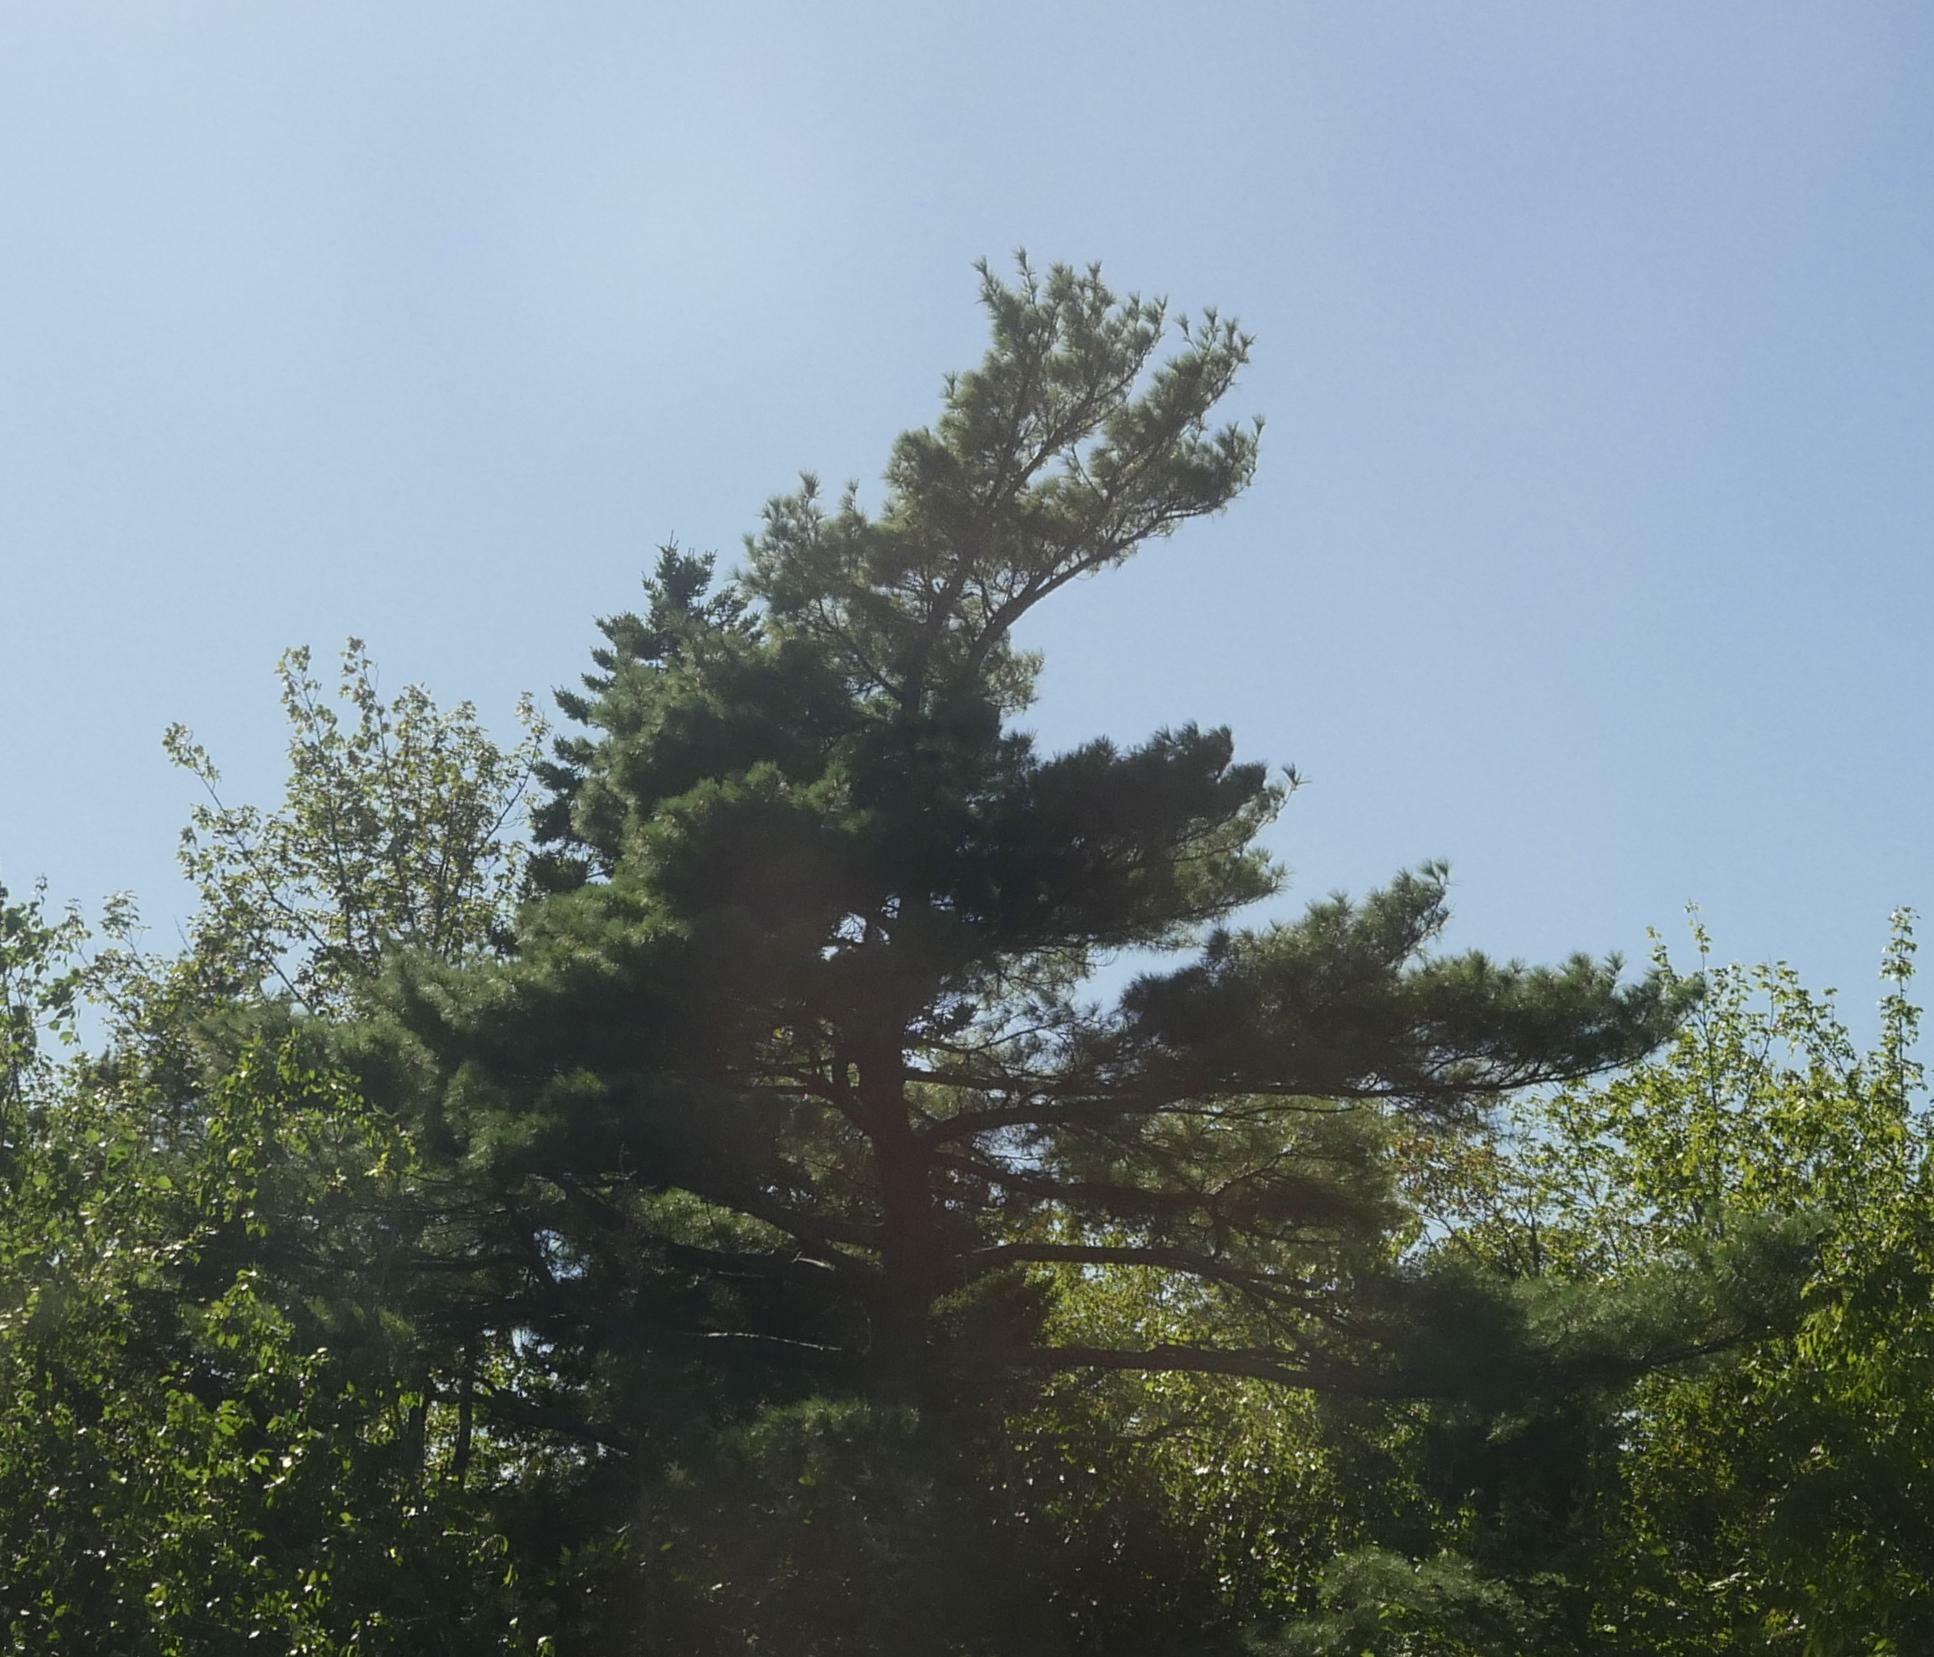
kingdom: Plantae
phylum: Tracheophyta
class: Pinopsida
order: Pinales
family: Pinaceae
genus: Pinus
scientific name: Pinus strobus
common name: Weymouth pine
